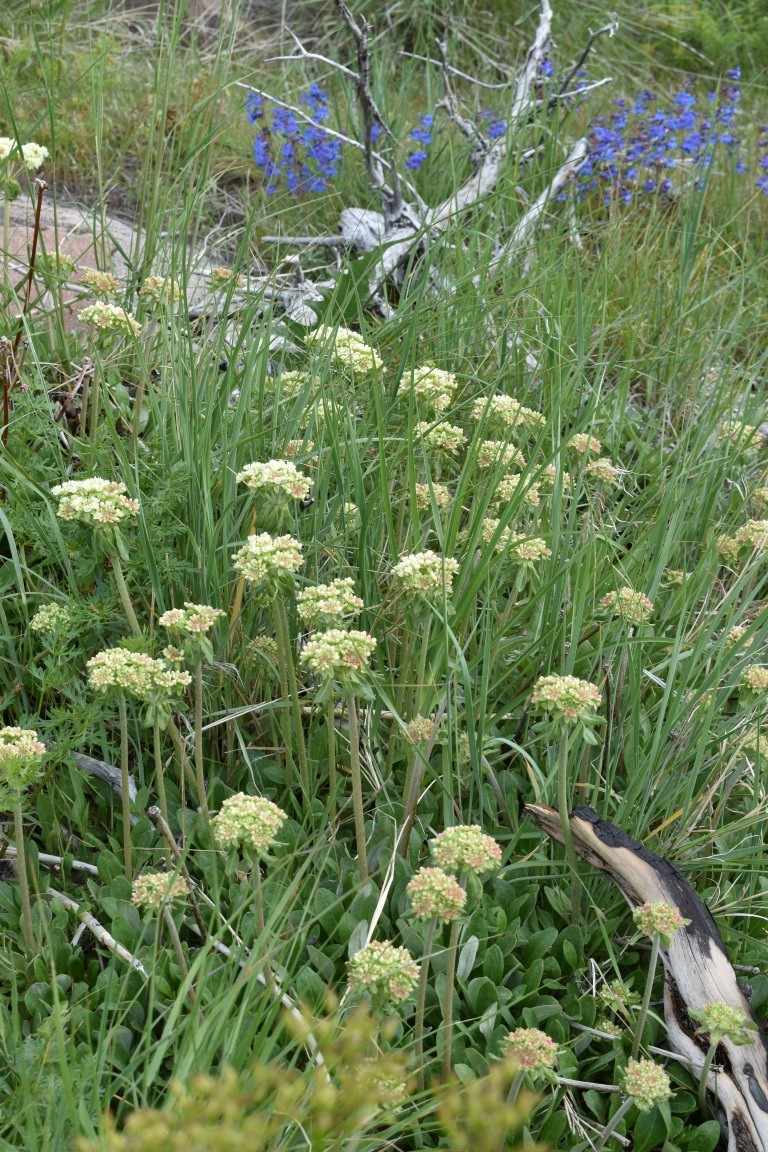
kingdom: Plantae
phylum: Tracheophyta
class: Magnoliopsida
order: Caryophyllales
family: Polygonaceae
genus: Eriogonum
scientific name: Eriogonum umbellatum
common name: Sulfur-buckwheat
